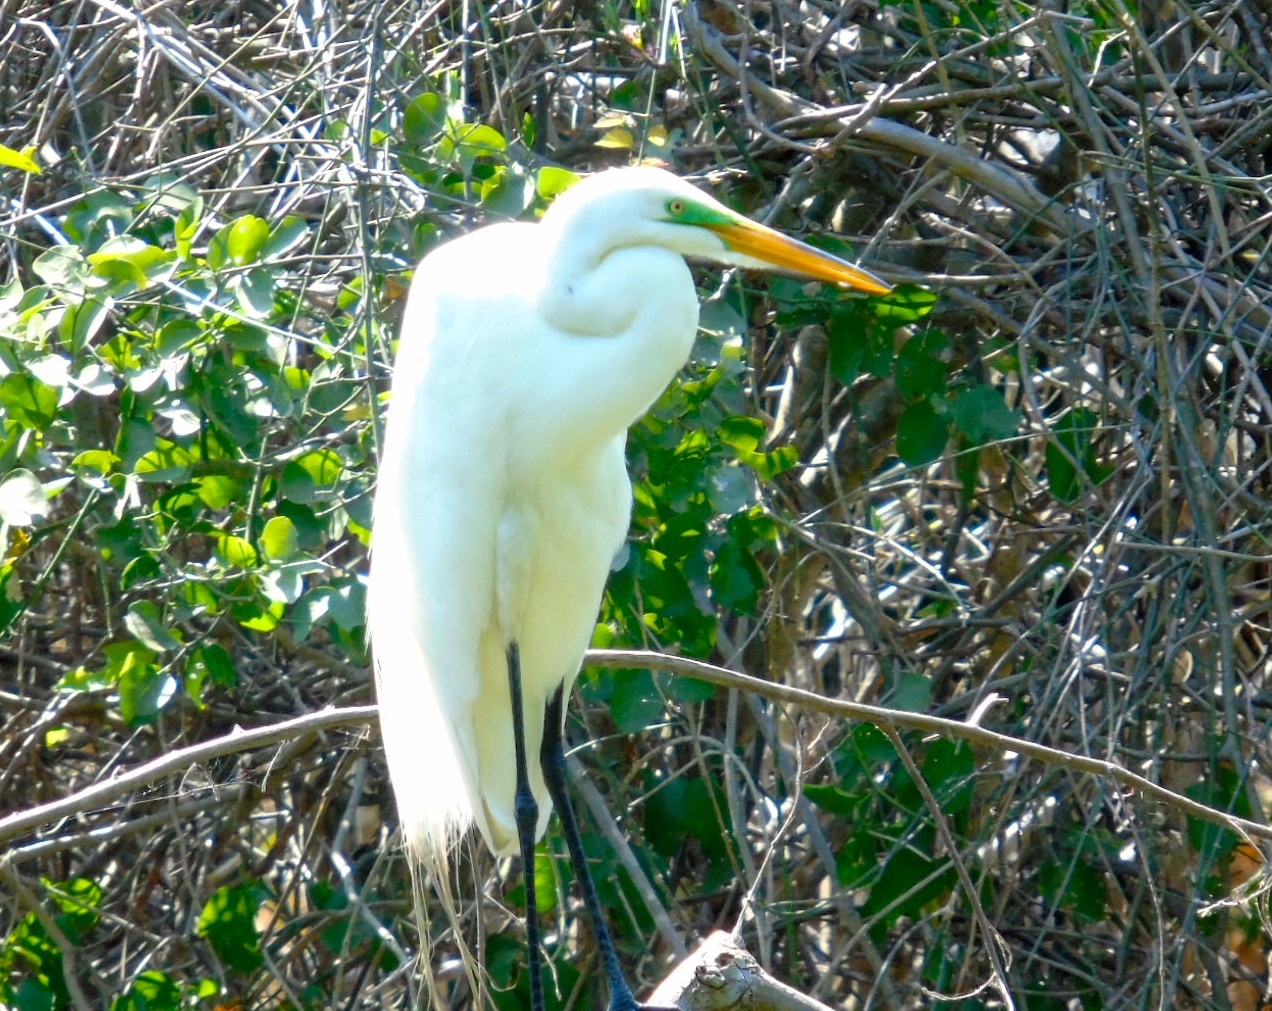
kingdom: Animalia
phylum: Chordata
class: Aves
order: Pelecaniformes
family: Ardeidae
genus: Ardea
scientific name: Ardea alba
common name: Great egret
